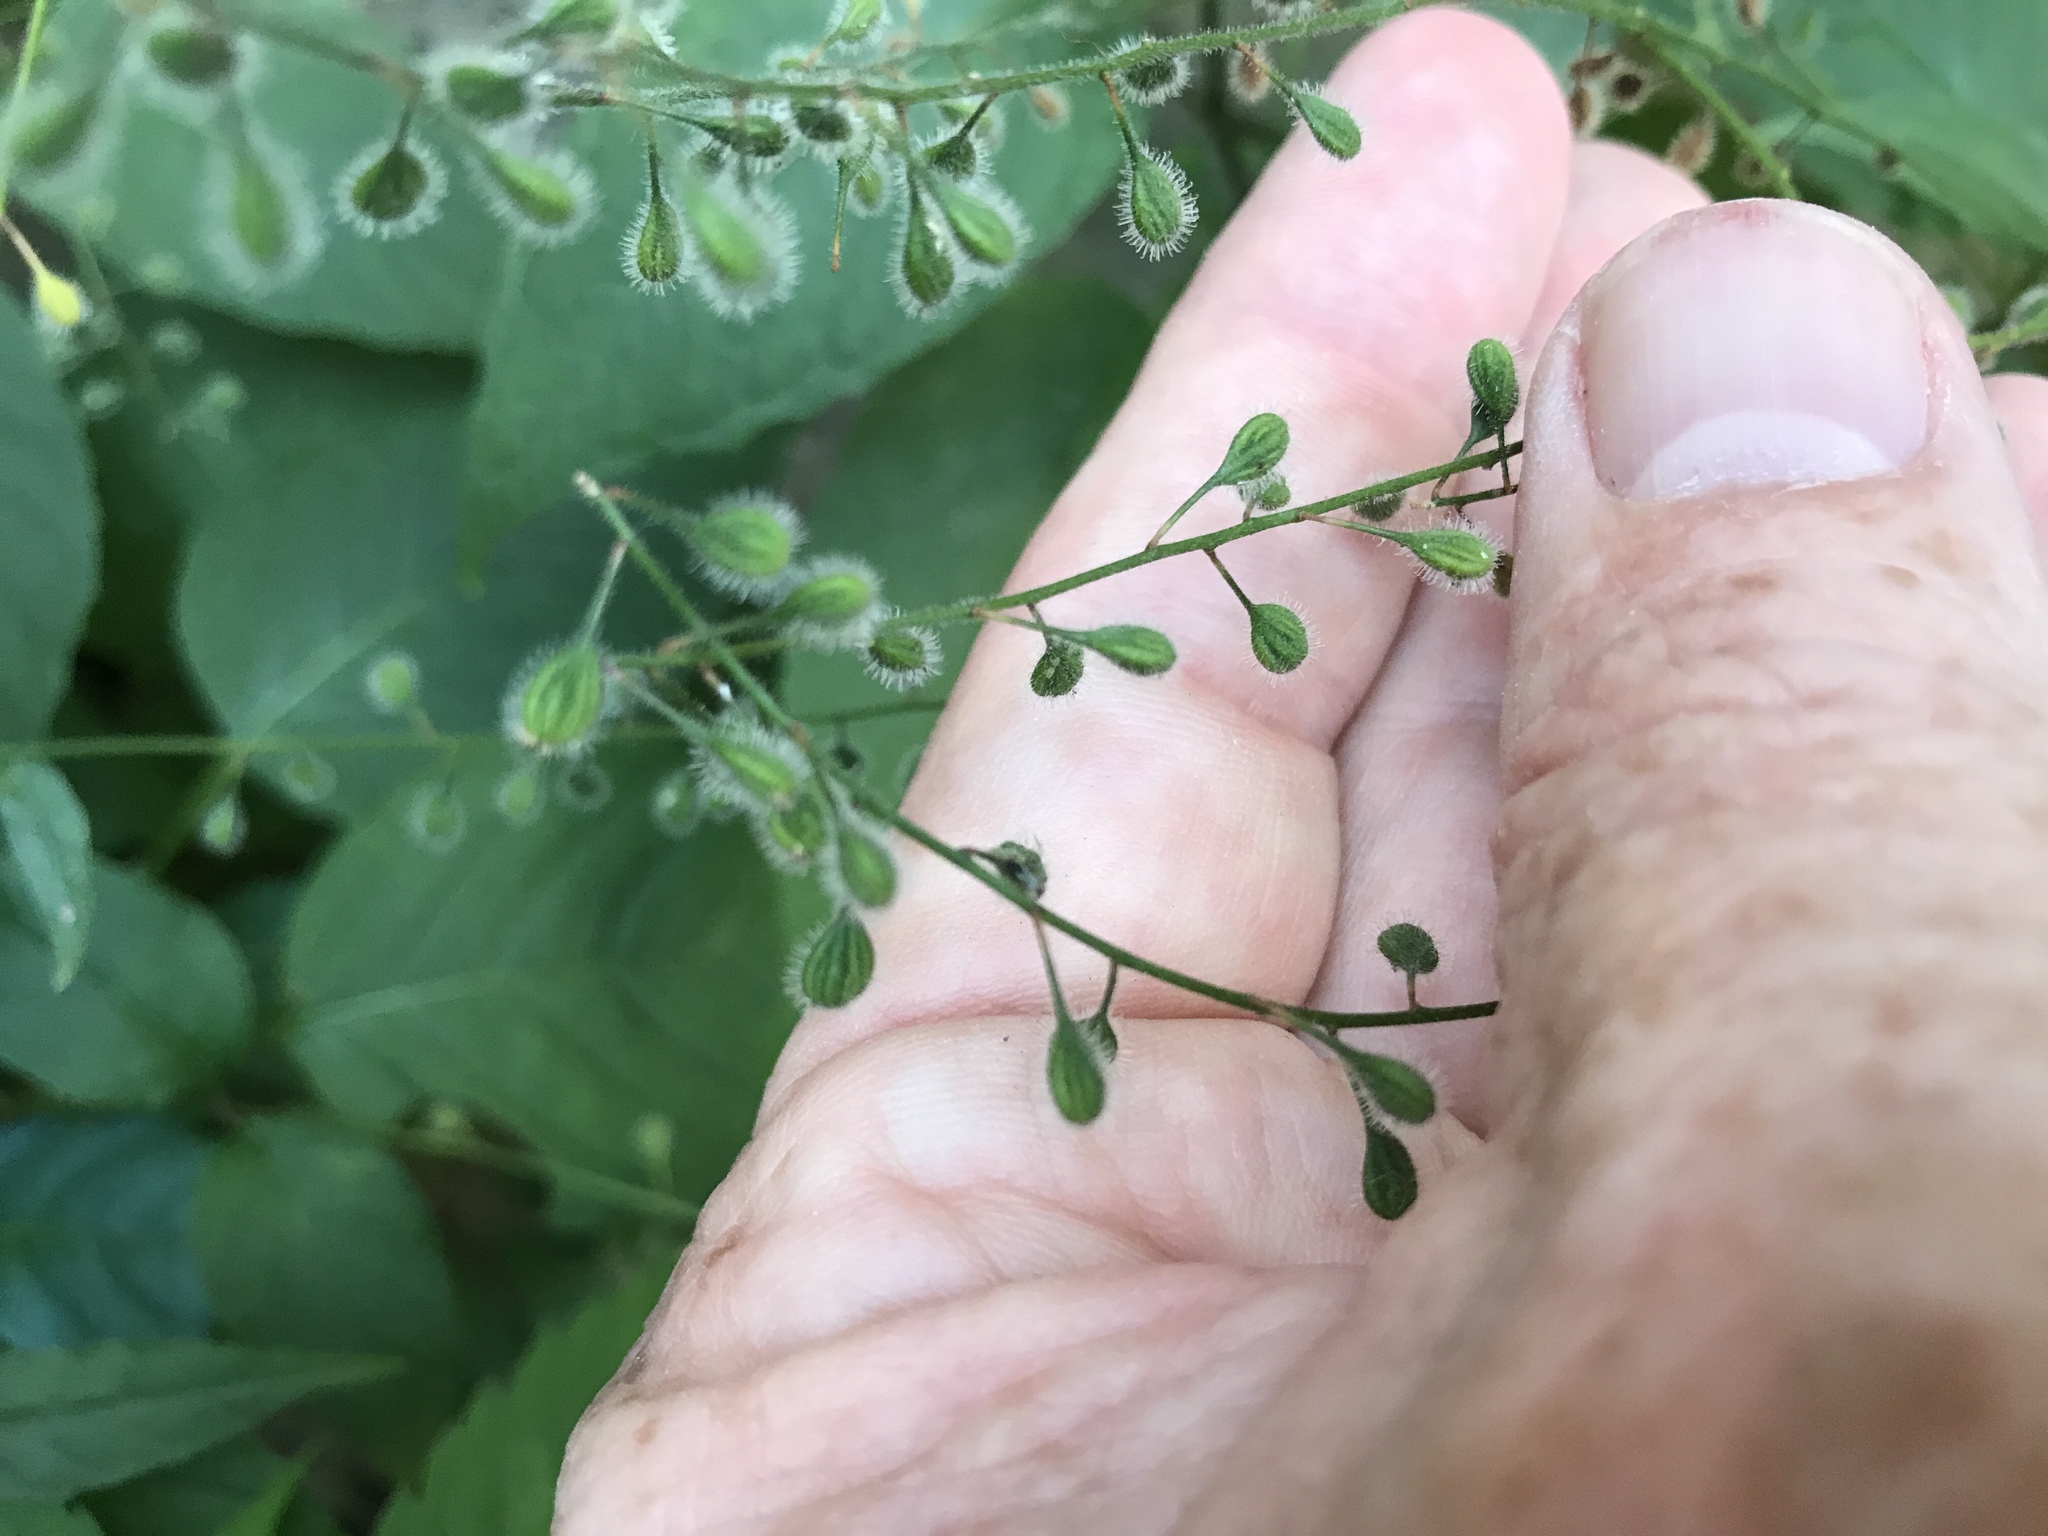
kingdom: Plantae
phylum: Tracheophyta
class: Magnoliopsida
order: Myrtales
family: Onagraceae
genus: Circaea
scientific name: Circaea canadensis
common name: Broad-leaved enchanter's nightshade
